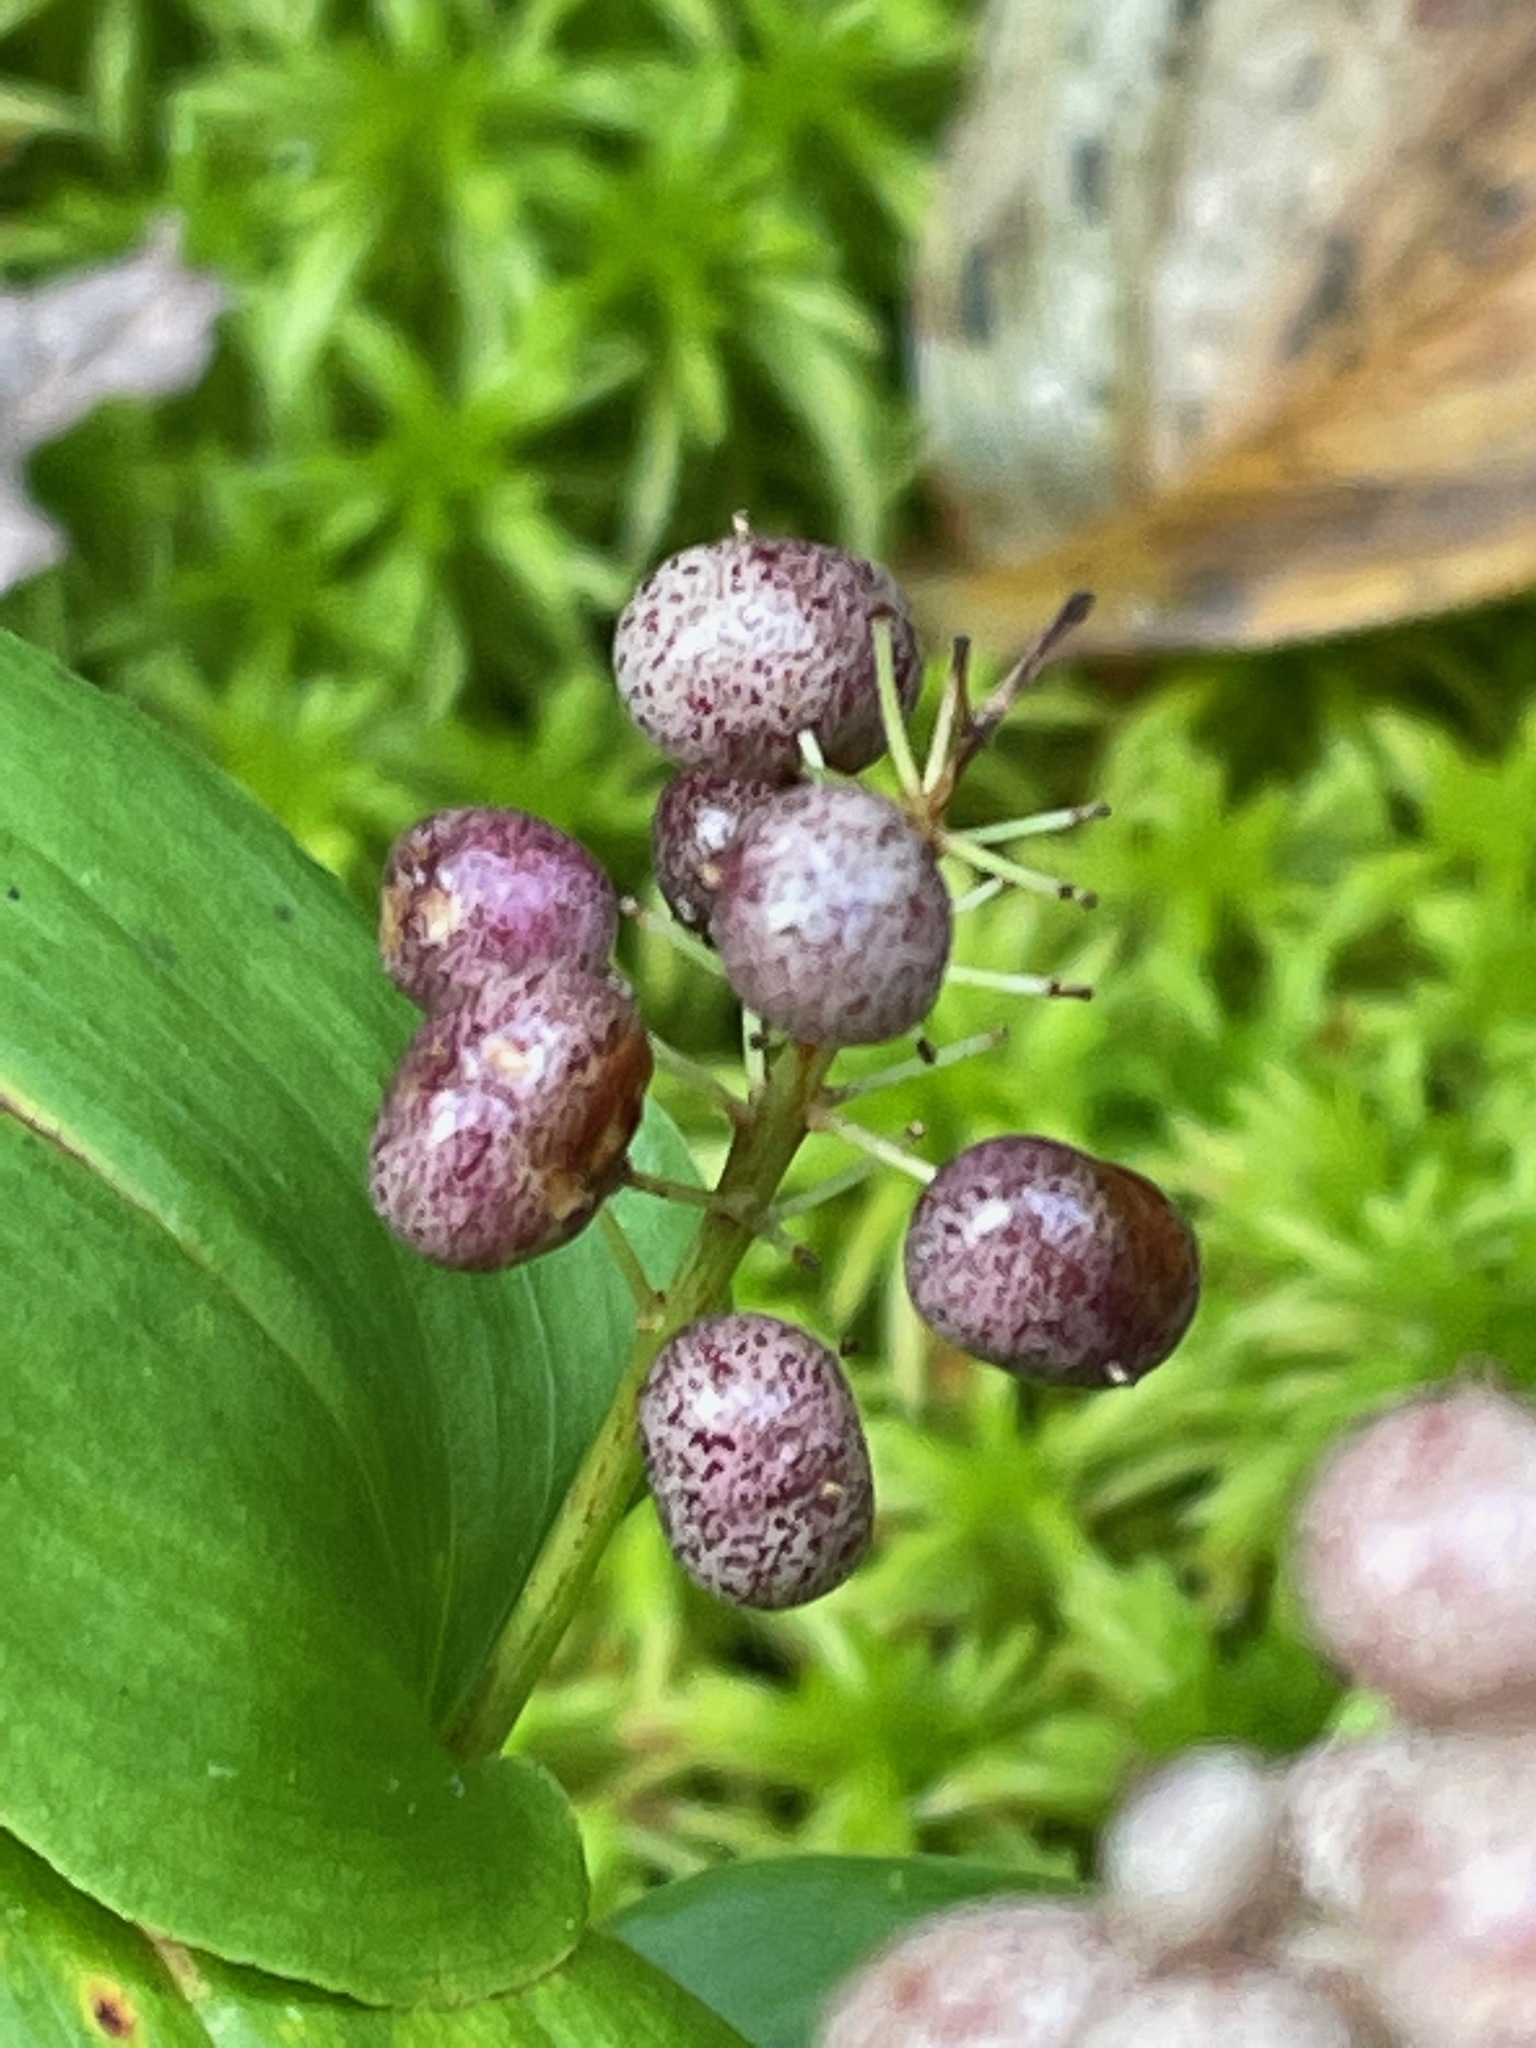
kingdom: Plantae
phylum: Tracheophyta
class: Liliopsida
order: Asparagales
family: Asparagaceae
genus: Maianthemum
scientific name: Maianthemum canadense
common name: False lily-of-the-valley
